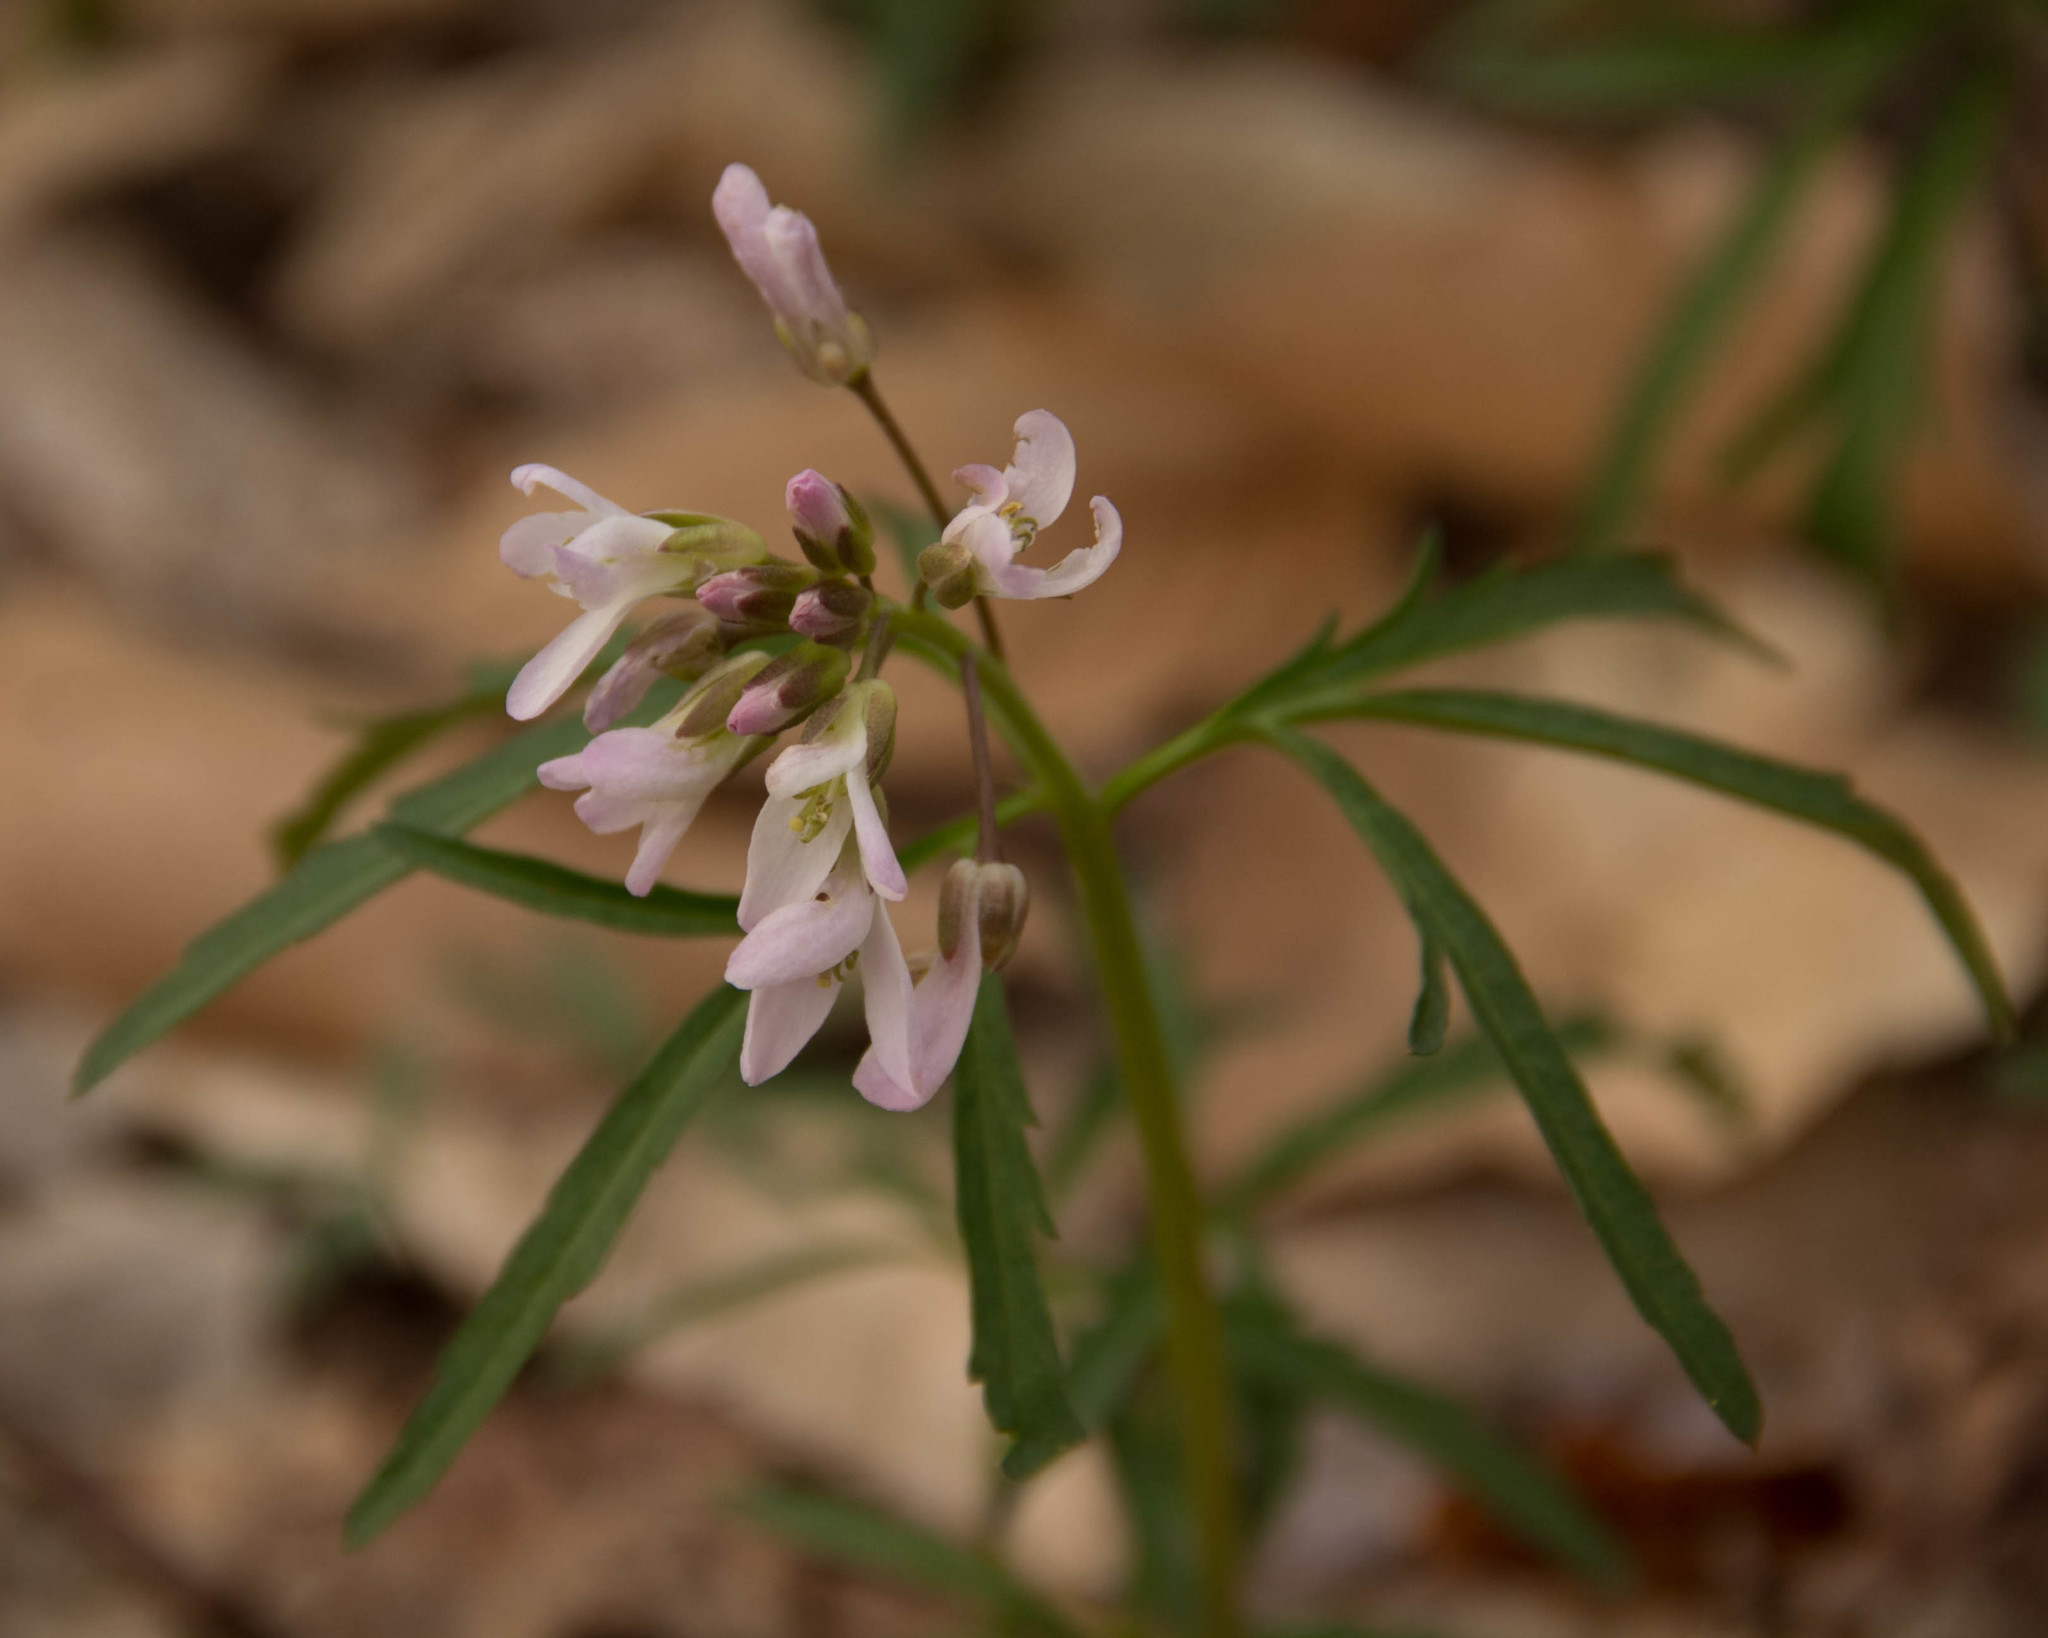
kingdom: Plantae
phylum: Tracheophyta
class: Magnoliopsida
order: Brassicales
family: Brassicaceae
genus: Cardamine
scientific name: Cardamine concatenata
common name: Cut-leaf toothcup
